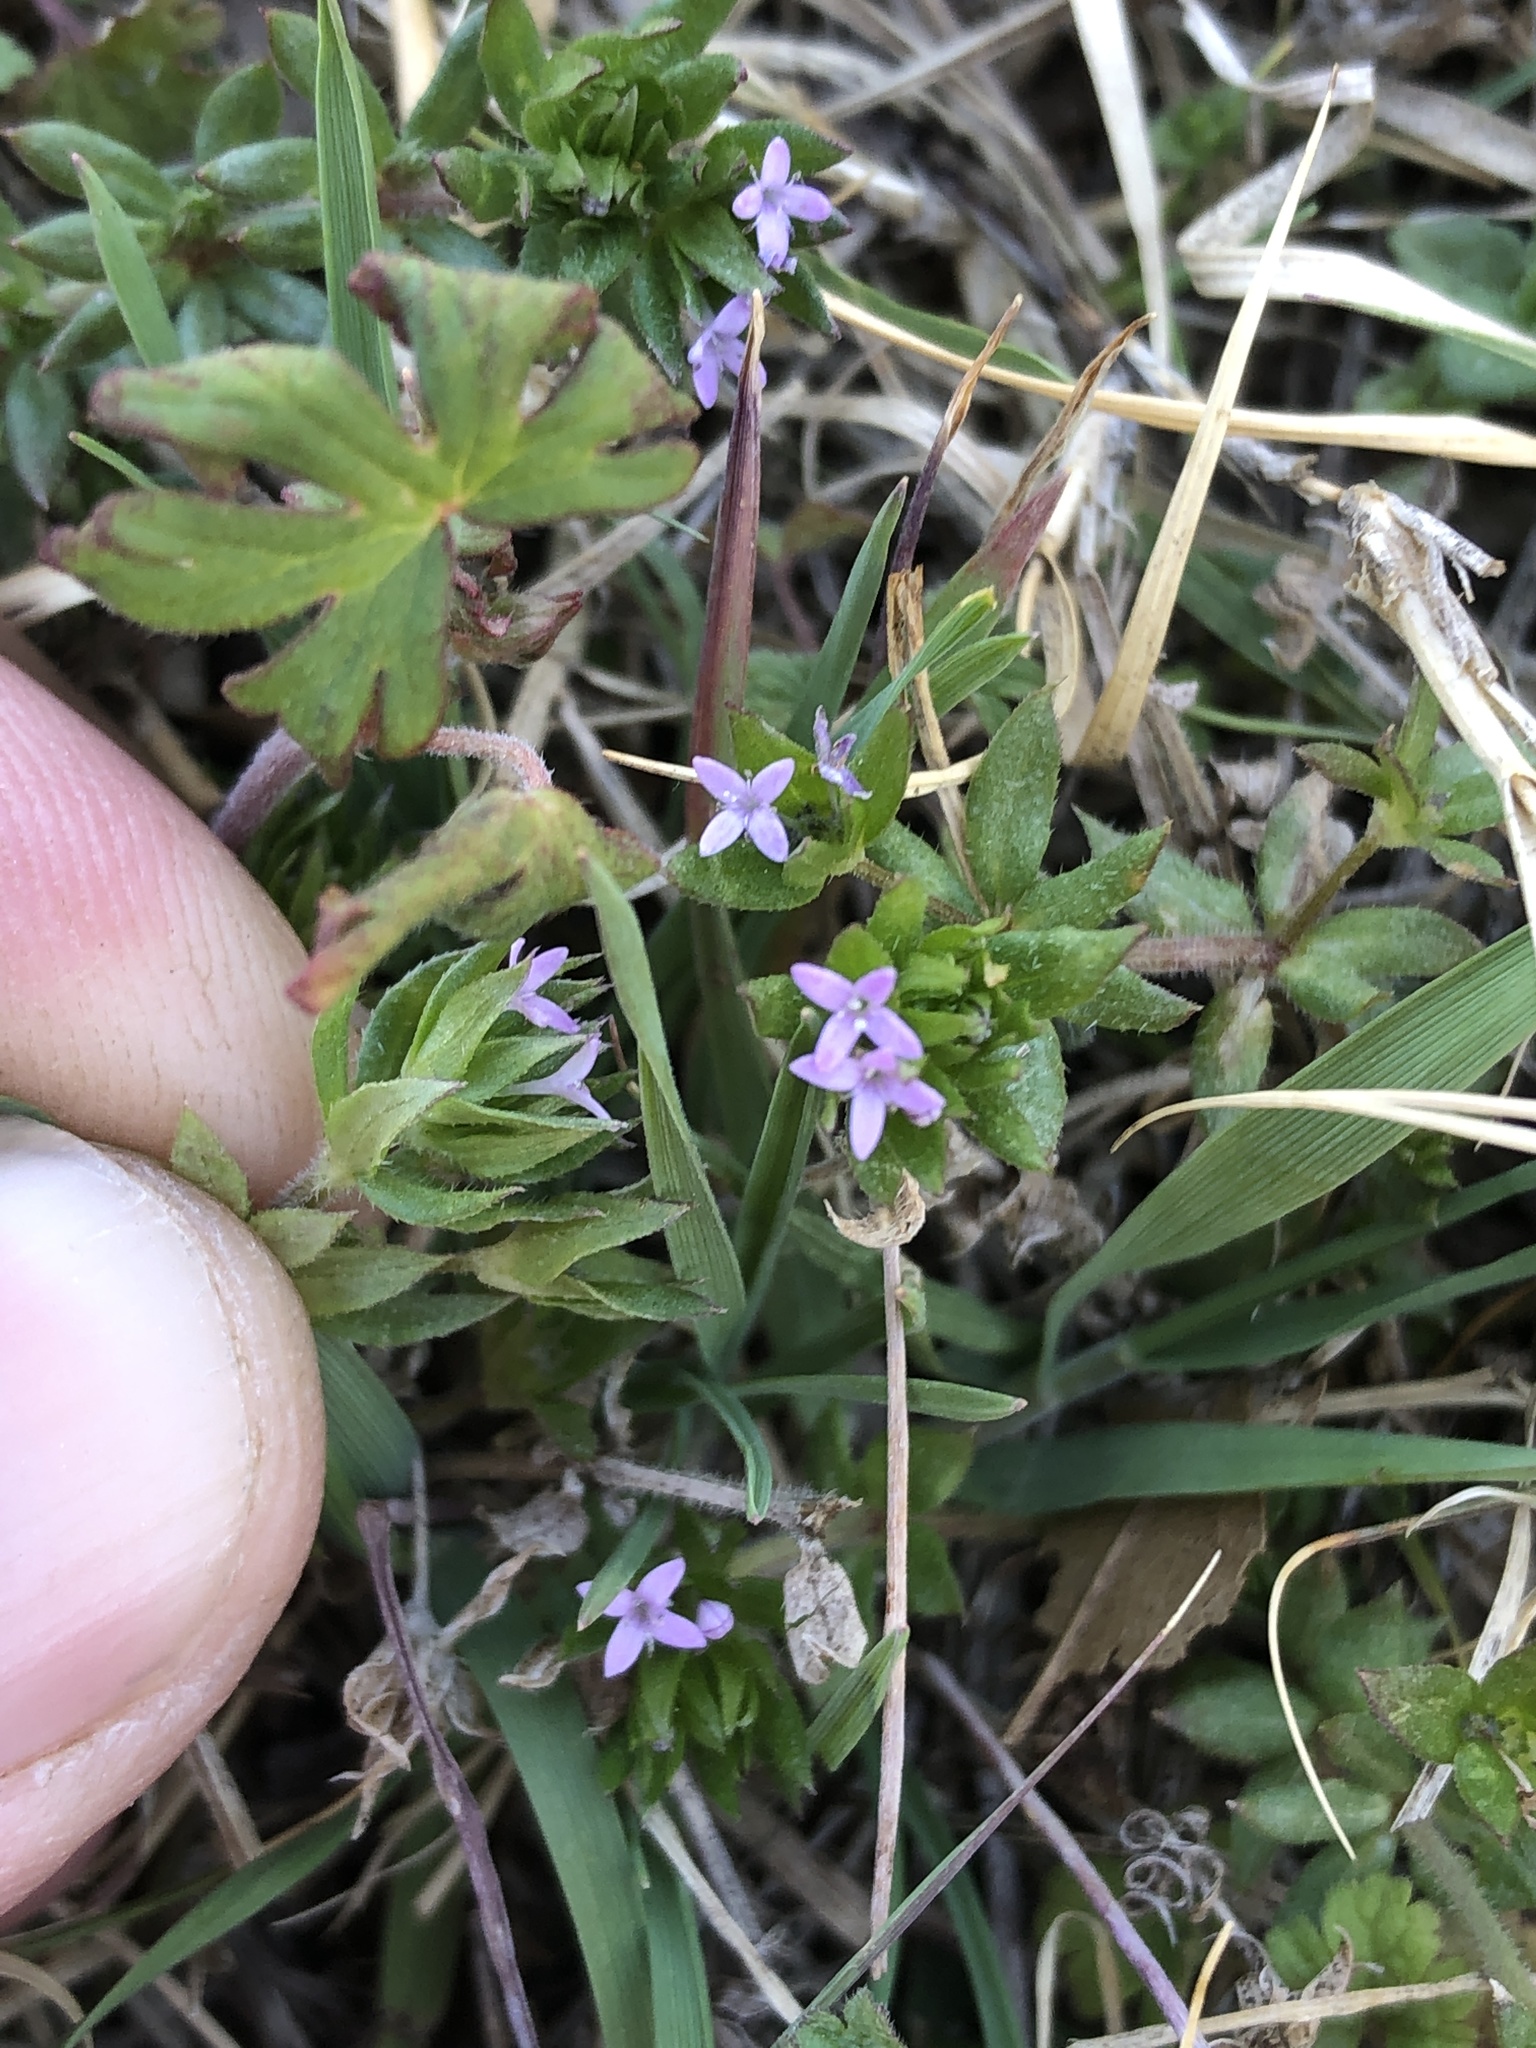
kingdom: Plantae
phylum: Tracheophyta
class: Magnoliopsida
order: Gentianales
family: Rubiaceae
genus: Sherardia
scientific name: Sherardia arvensis
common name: Field madder
